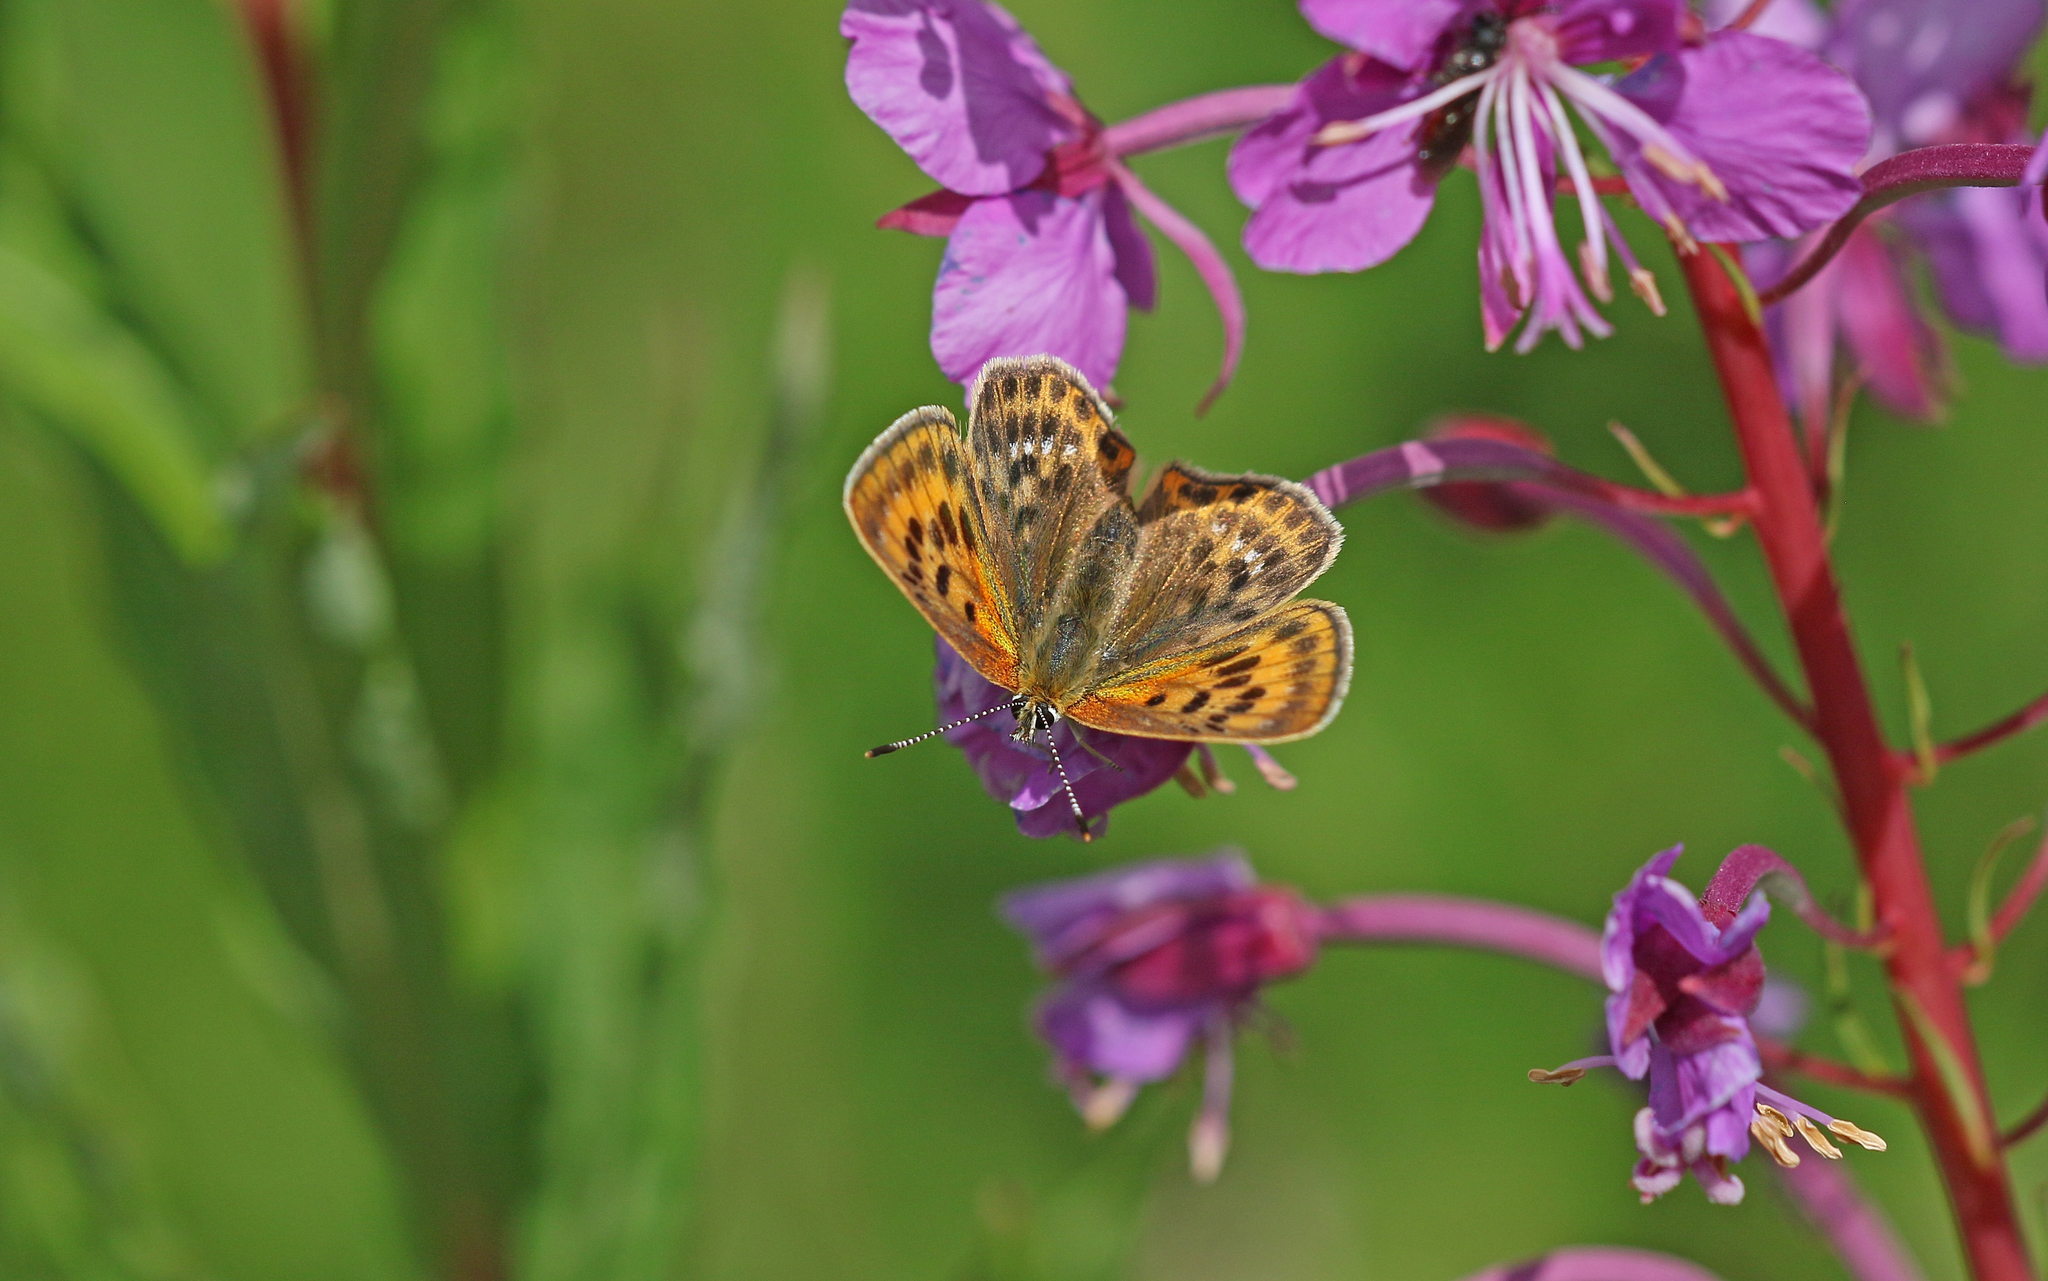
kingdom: Animalia
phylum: Arthropoda
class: Insecta
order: Lepidoptera
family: Lycaenidae
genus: Lycaena
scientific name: Lycaena virgaureae
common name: Scarce copper
